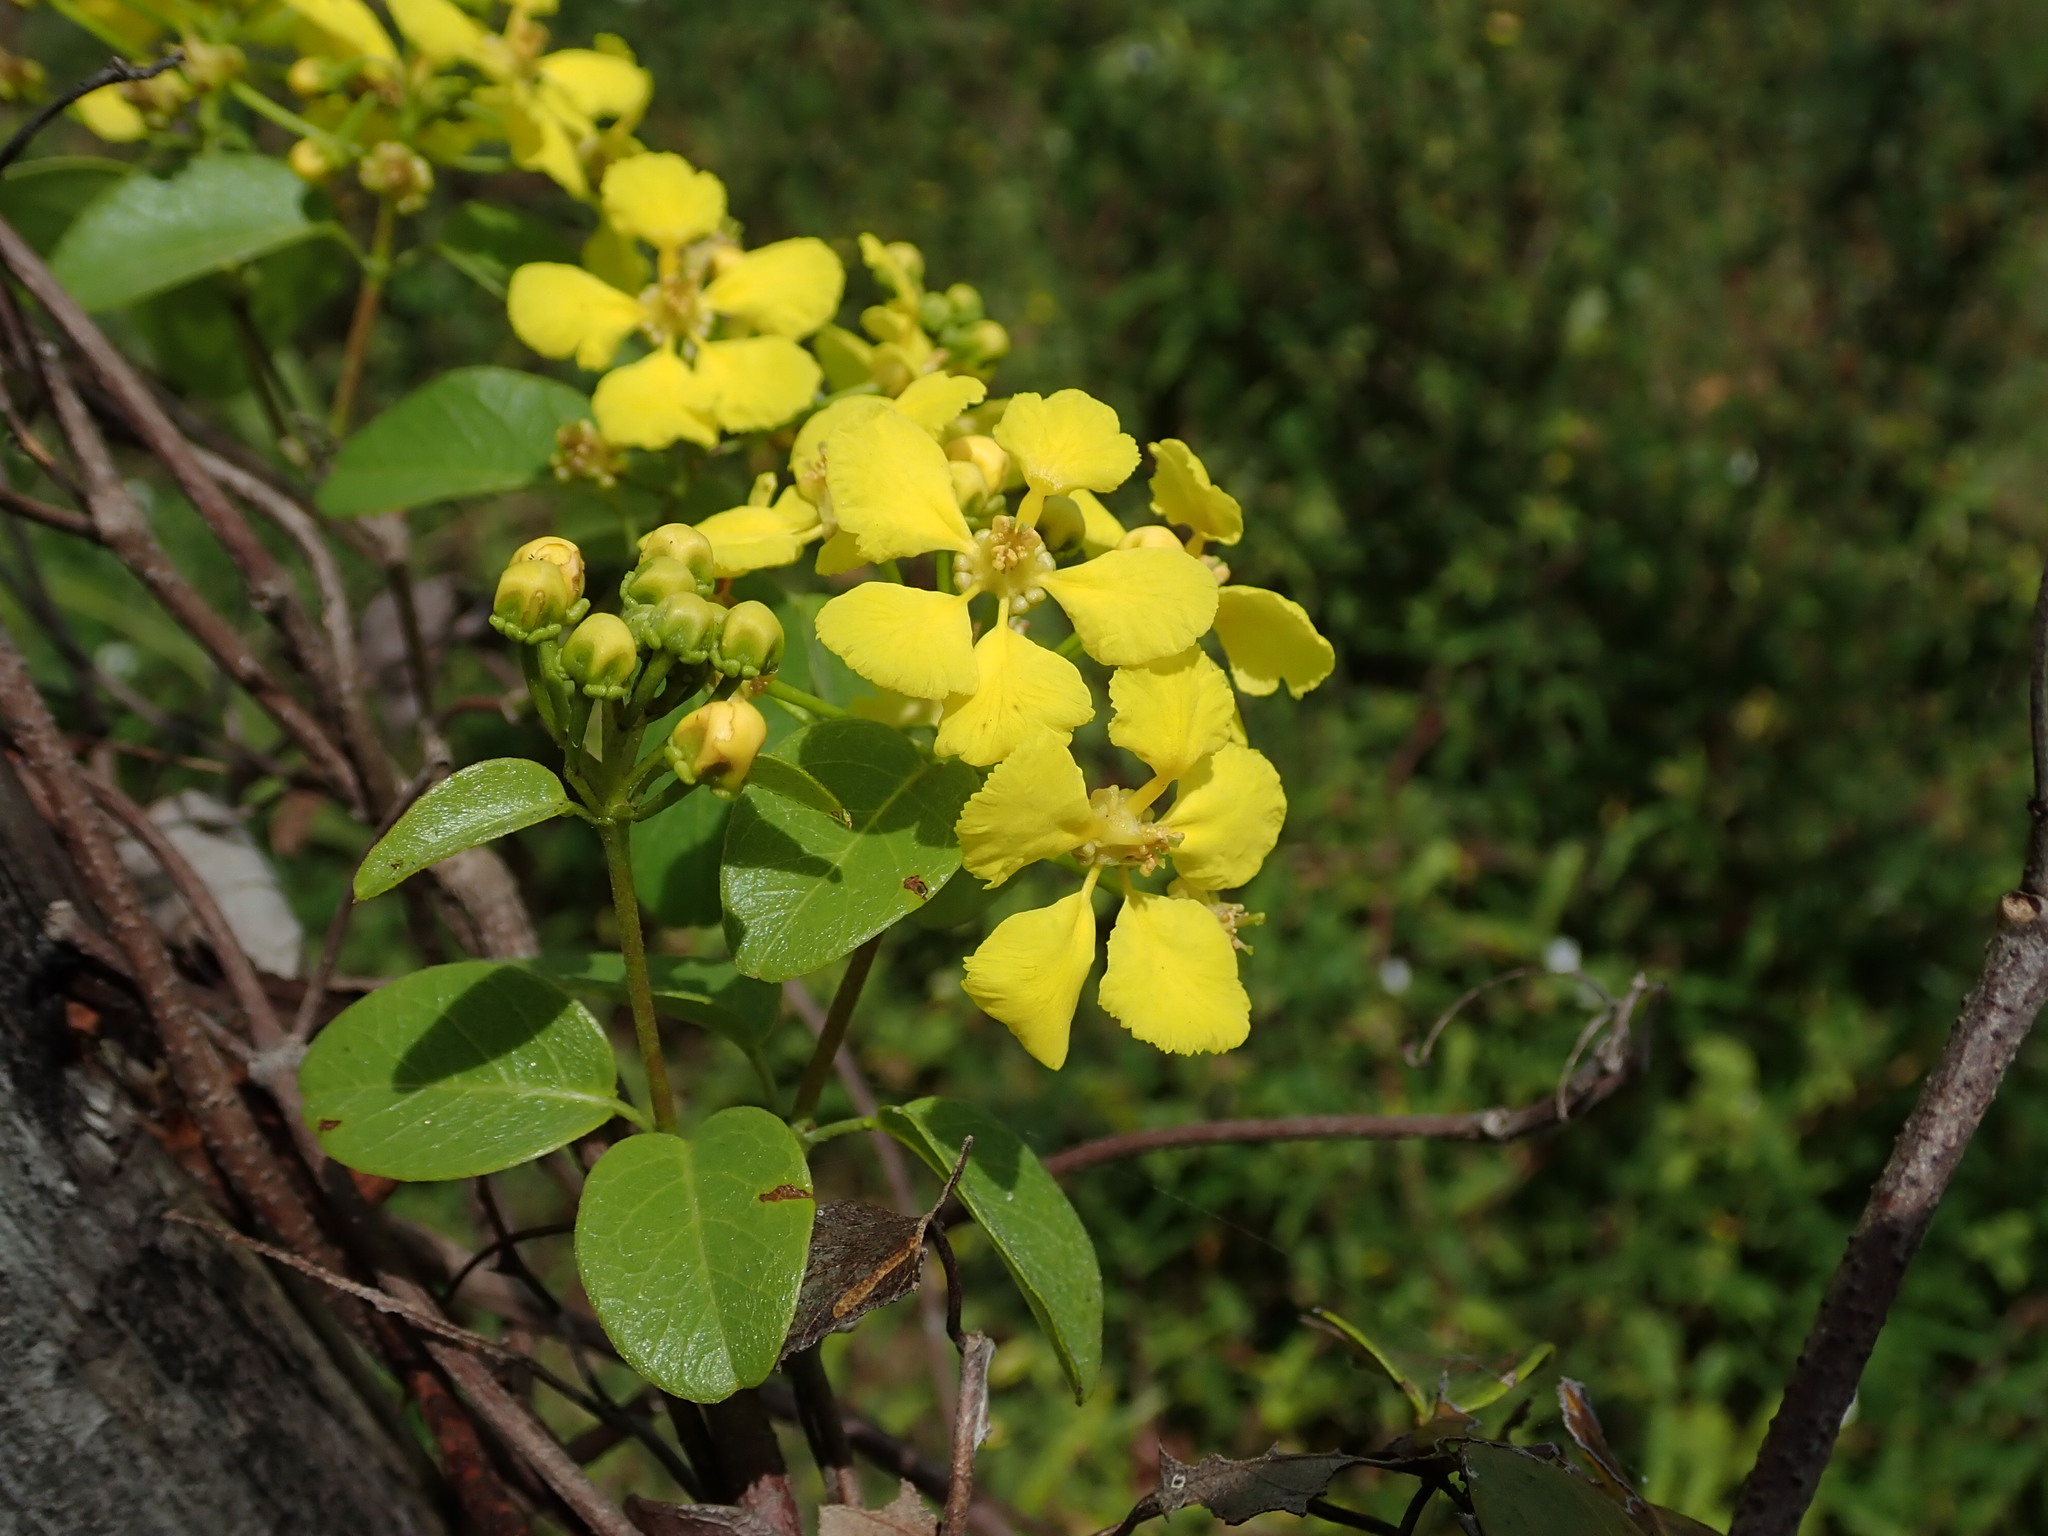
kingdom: Plantae
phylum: Tracheophyta
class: Magnoliopsida
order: Malpighiales
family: Malpighiaceae
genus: Stigmaphyllon
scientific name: Stigmaphyllon emarginatum
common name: Monarch amazonvine
